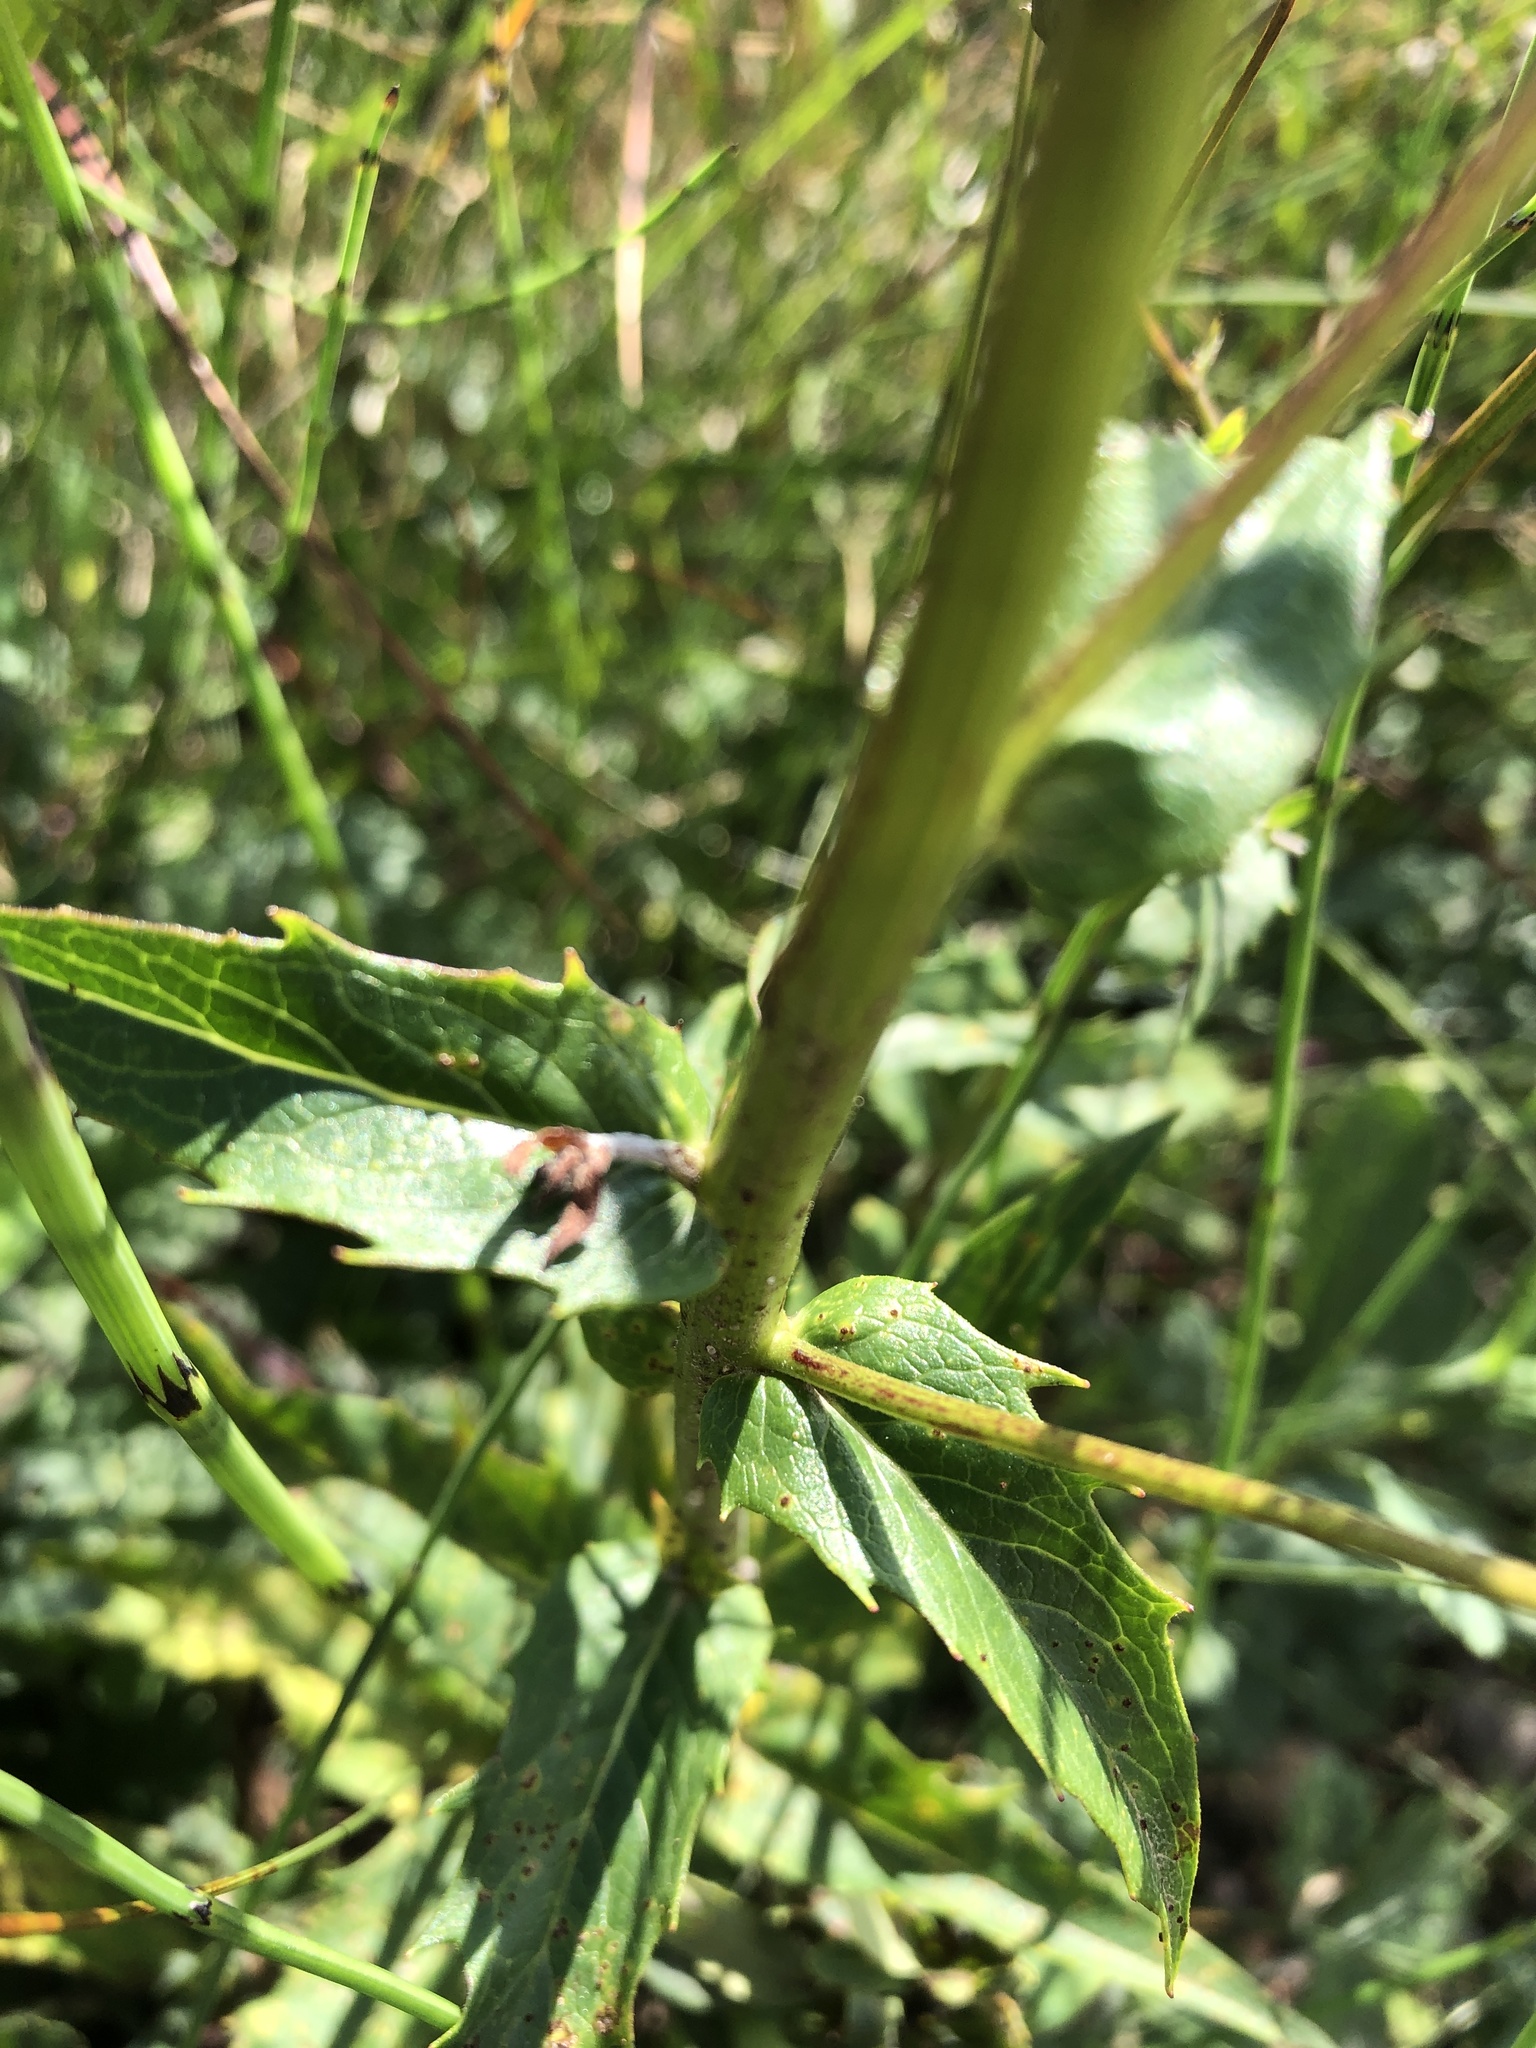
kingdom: Plantae
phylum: Tracheophyta
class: Magnoliopsida
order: Asterales
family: Asteraceae
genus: Hieracium
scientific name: Hieracium umbellatum
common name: Northern hawkweed
